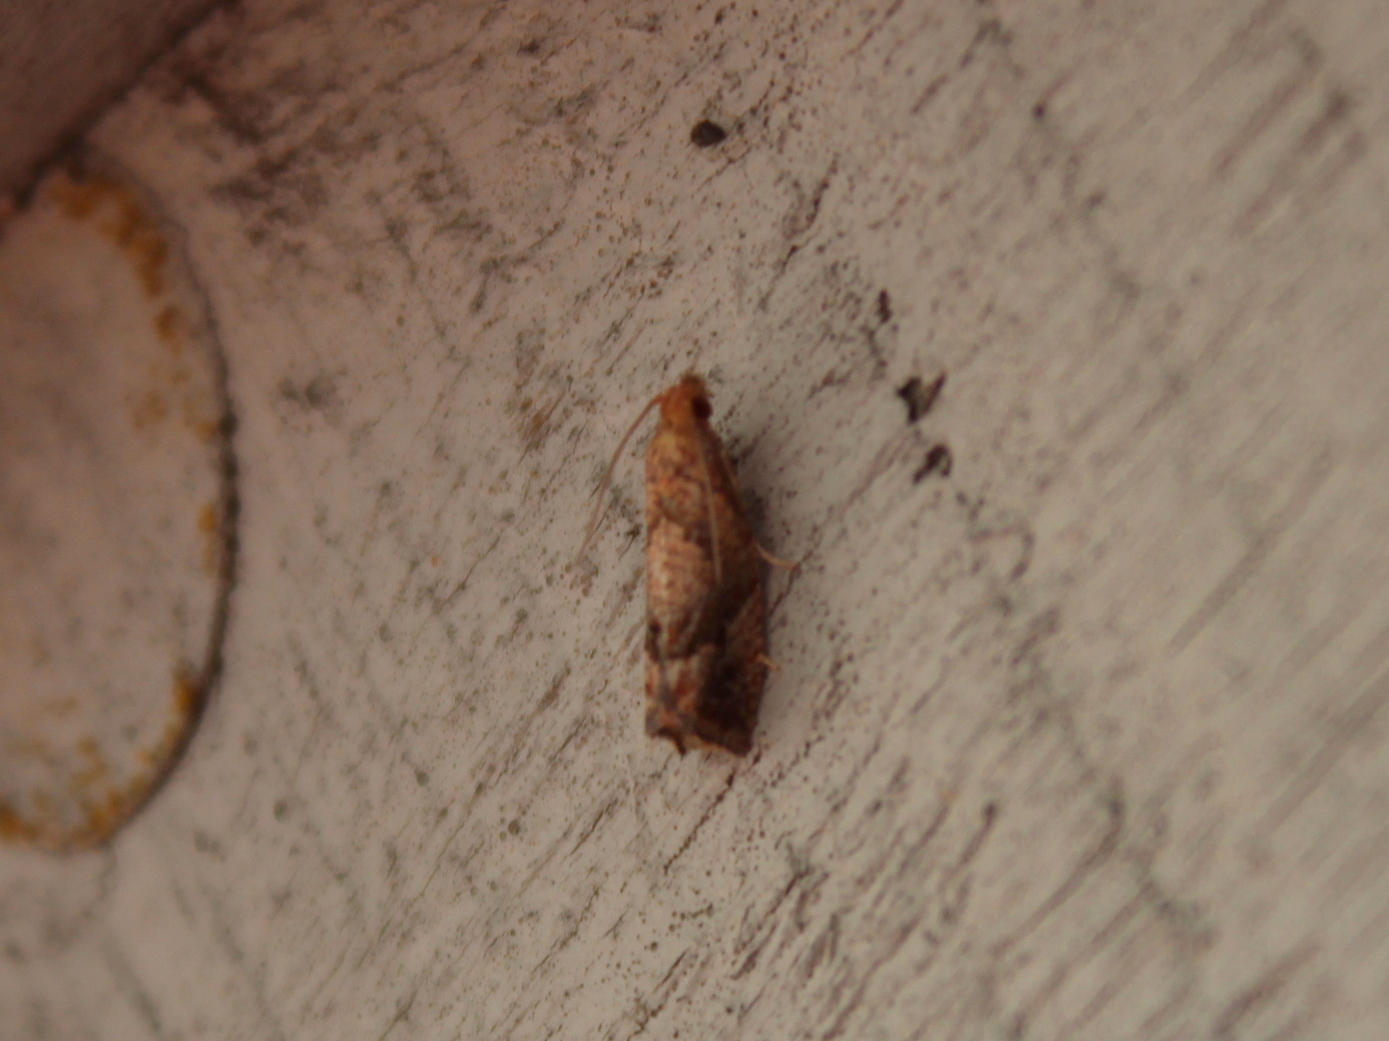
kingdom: Animalia
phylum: Arthropoda
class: Insecta
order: Lepidoptera
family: Tortricidae
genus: Pelochrista
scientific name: Pelochrista derelicta
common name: Derelict pelochrista moth
